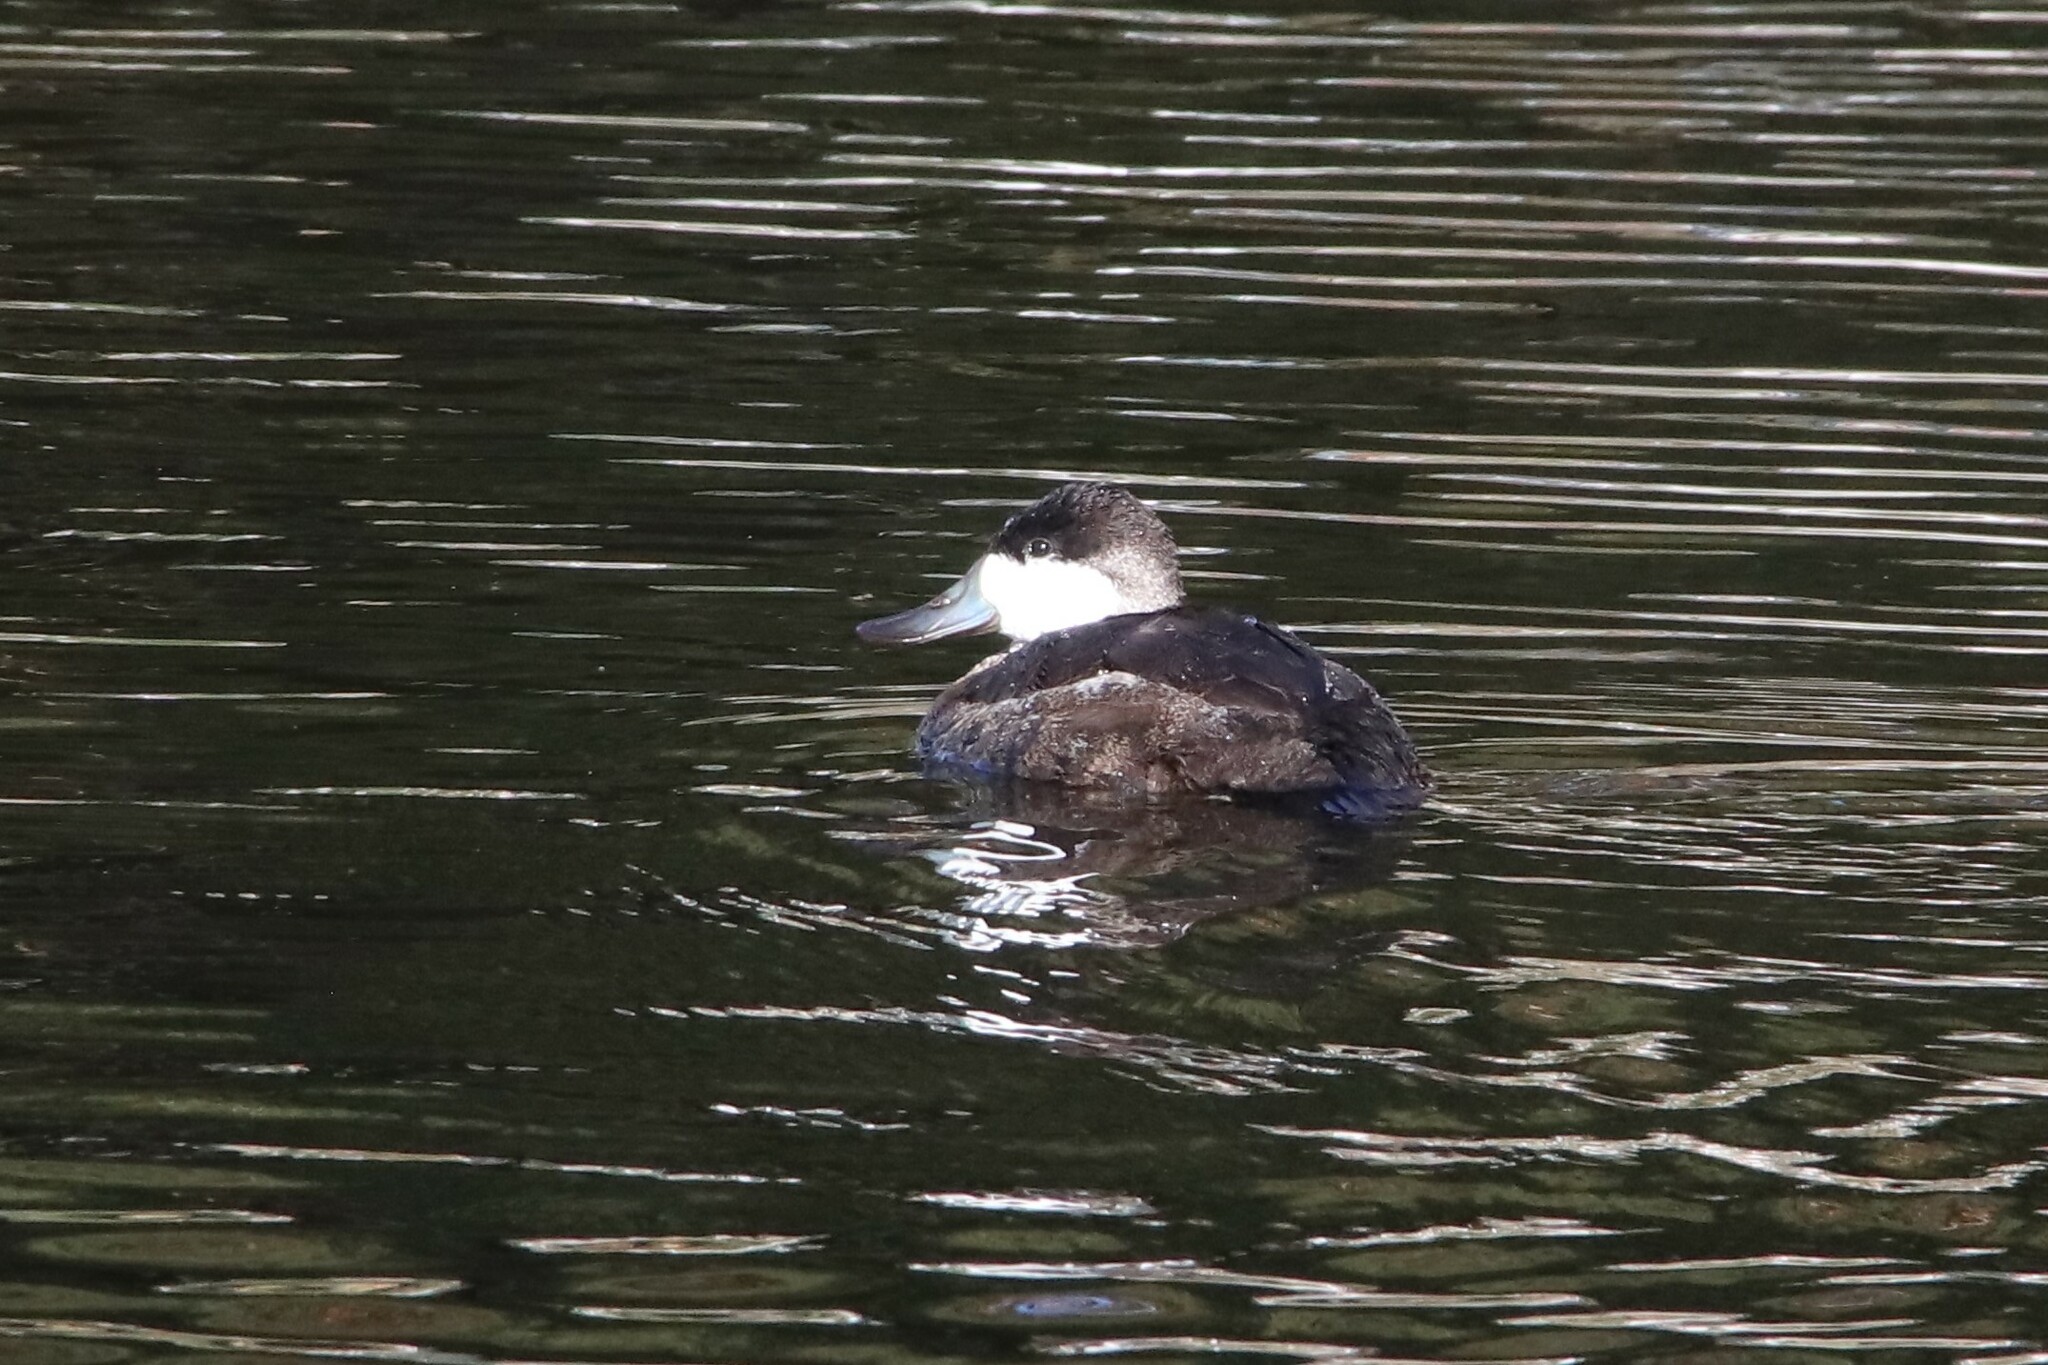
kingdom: Animalia
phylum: Chordata
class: Aves
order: Anseriformes
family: Anatidae
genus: Oxyura
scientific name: Oxyura jamaicensis
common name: Ruddy duck
